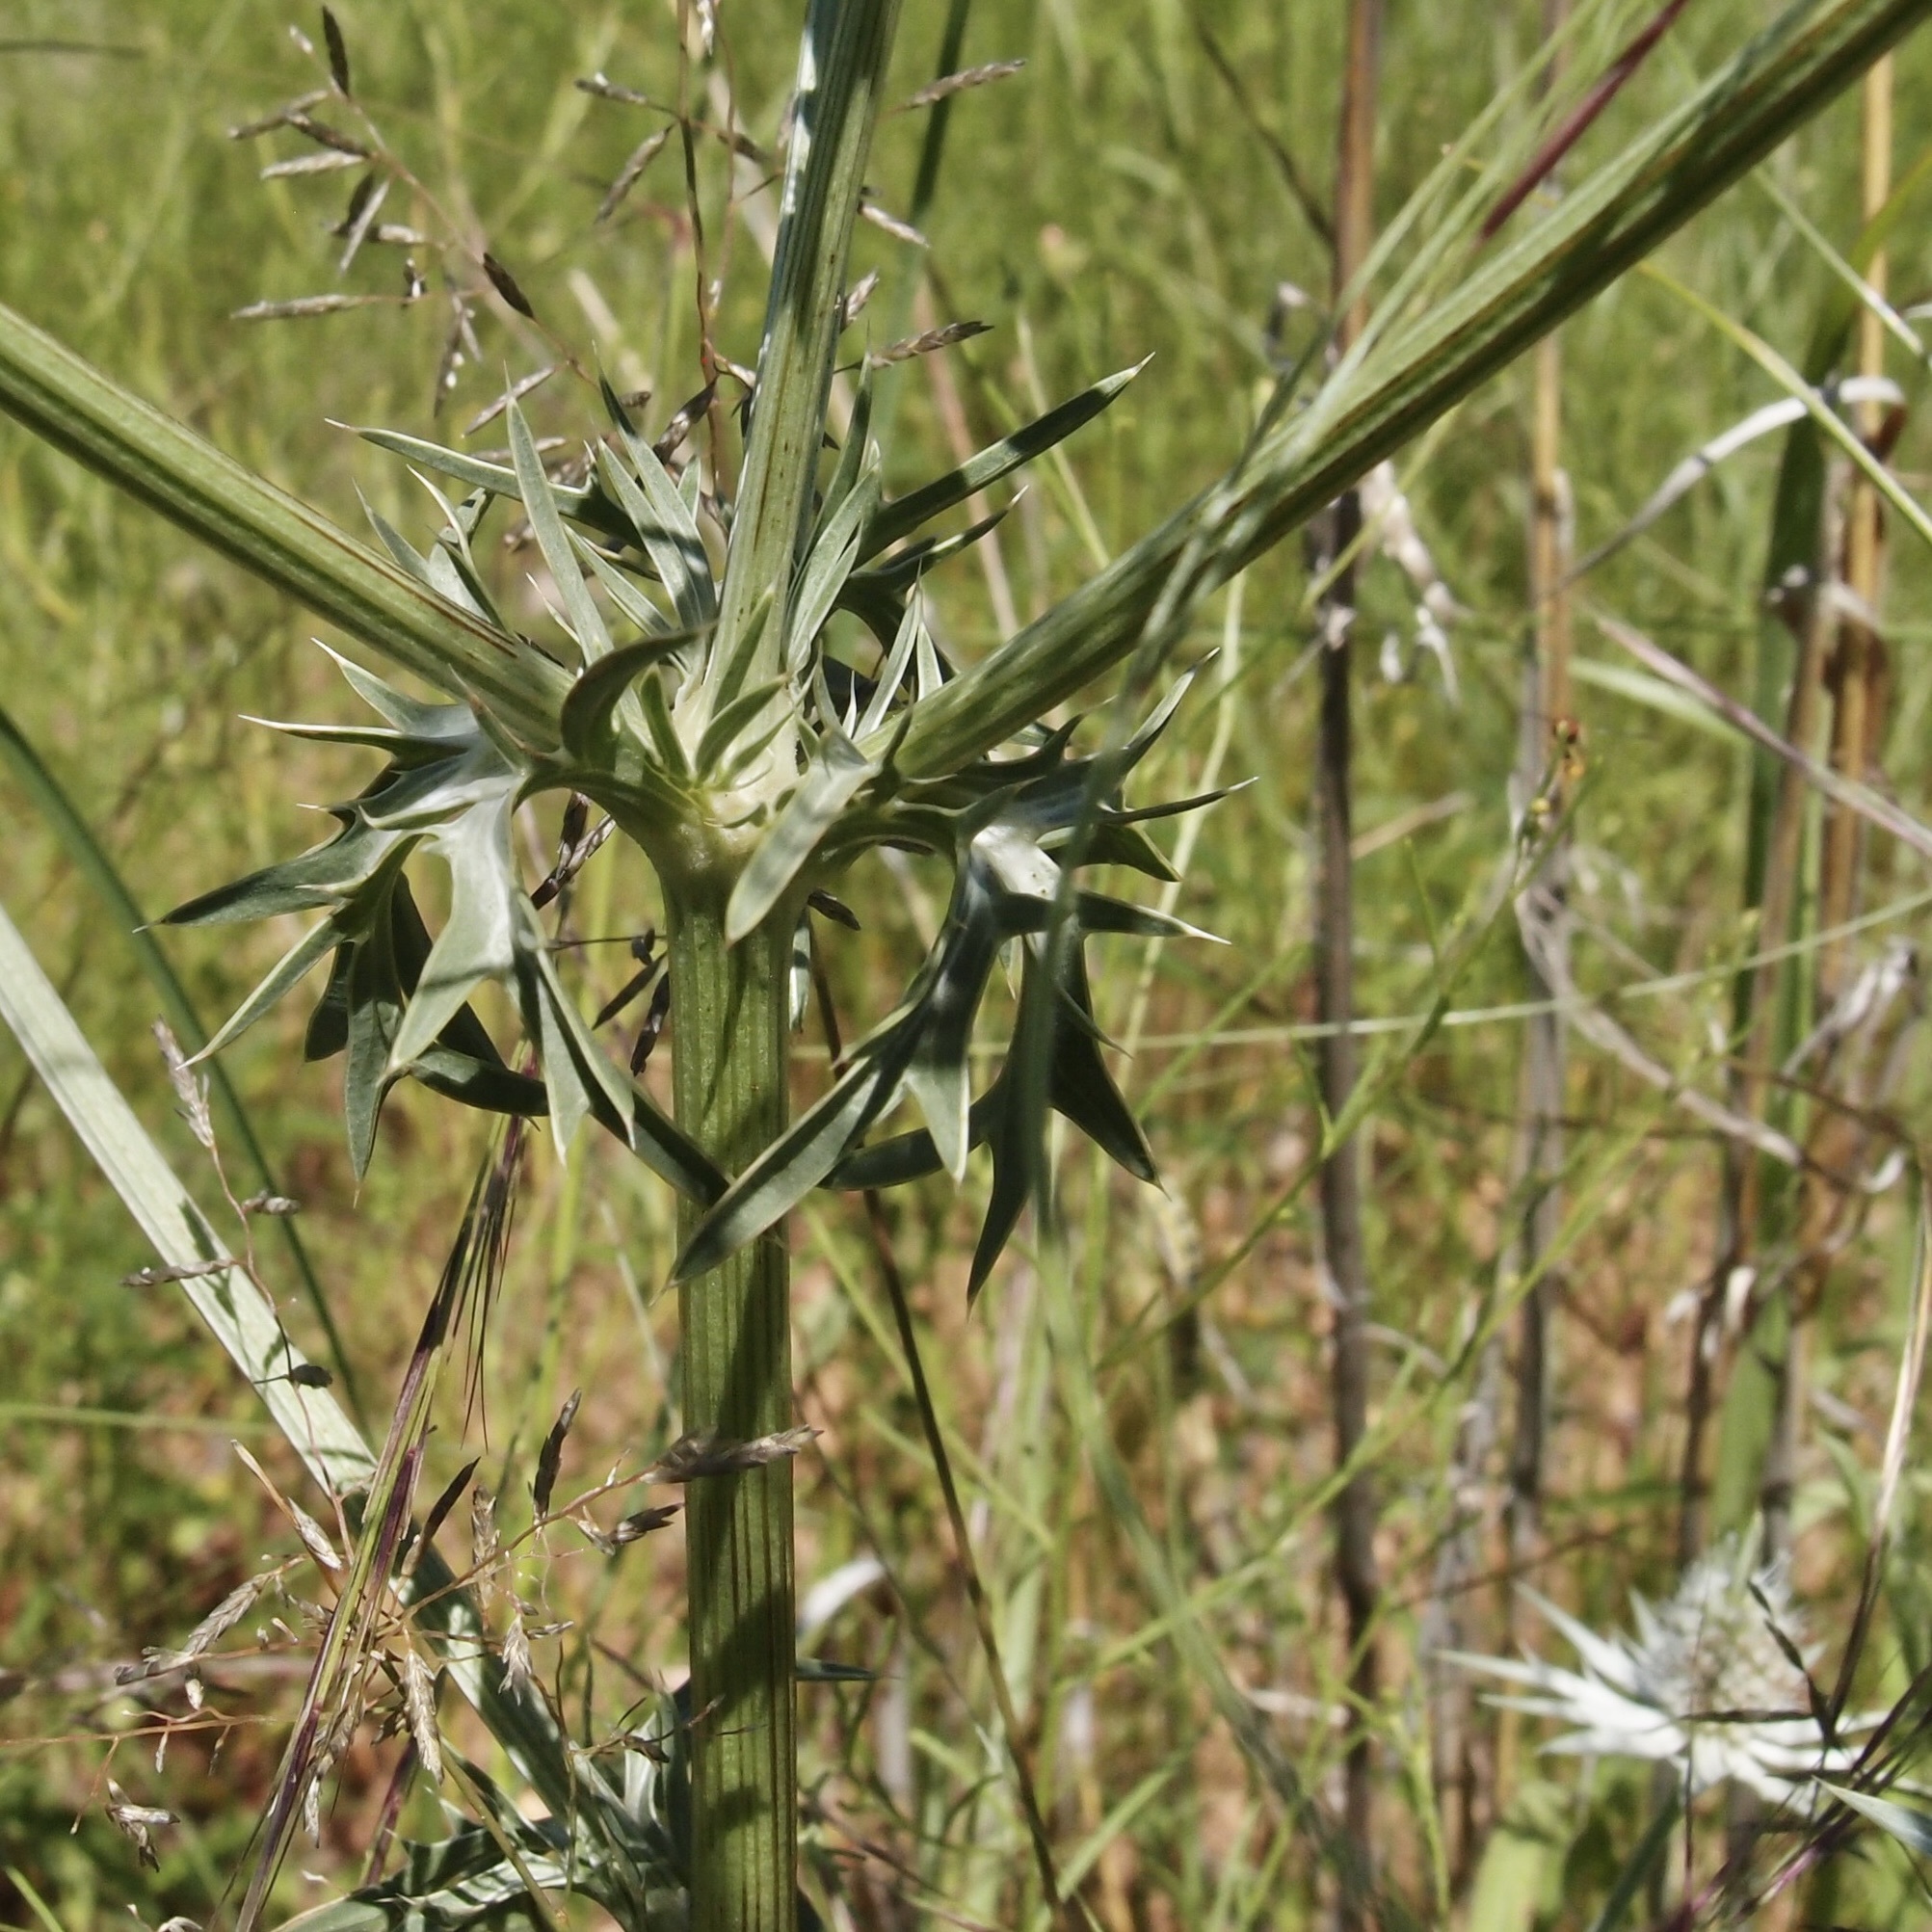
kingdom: Plantae
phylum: Tracheophyta
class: Magnoliopsida
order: Apiales
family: Apiaceae
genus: Eryngium
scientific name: Eryngium heterophyllum
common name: Mexican thistle
